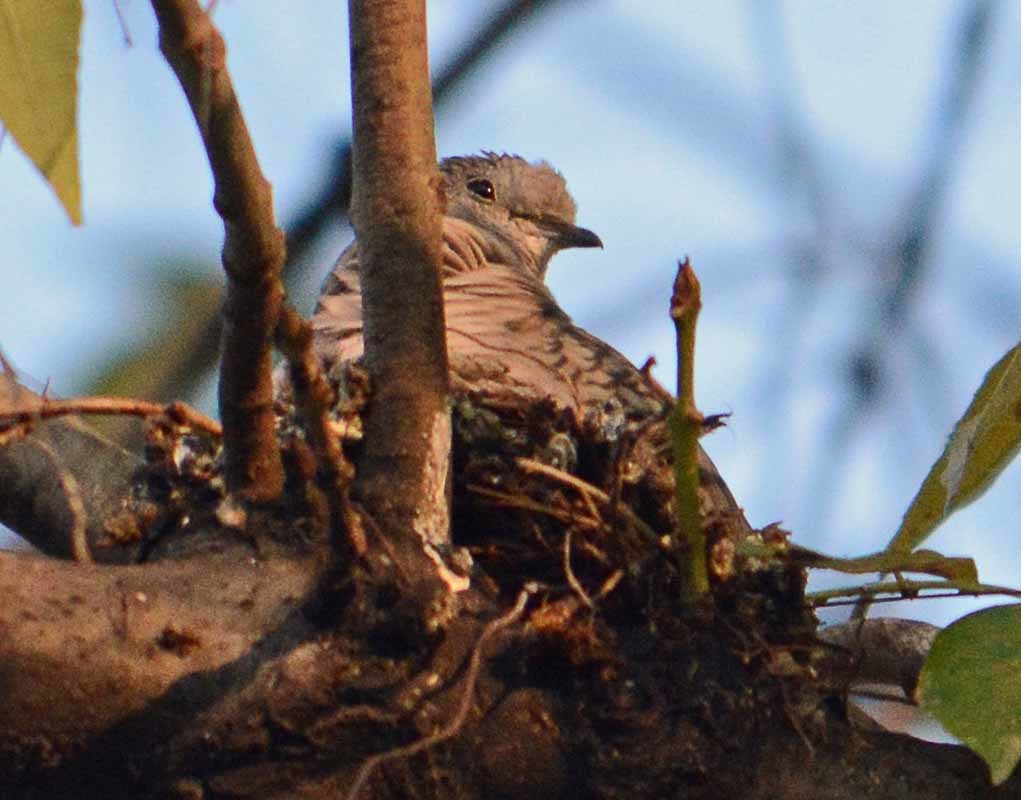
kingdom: Animalia
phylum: Chordata
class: Aves
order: Columbiformes
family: Columbidae
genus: Columbina
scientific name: Columbina inca
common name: Inca dove
